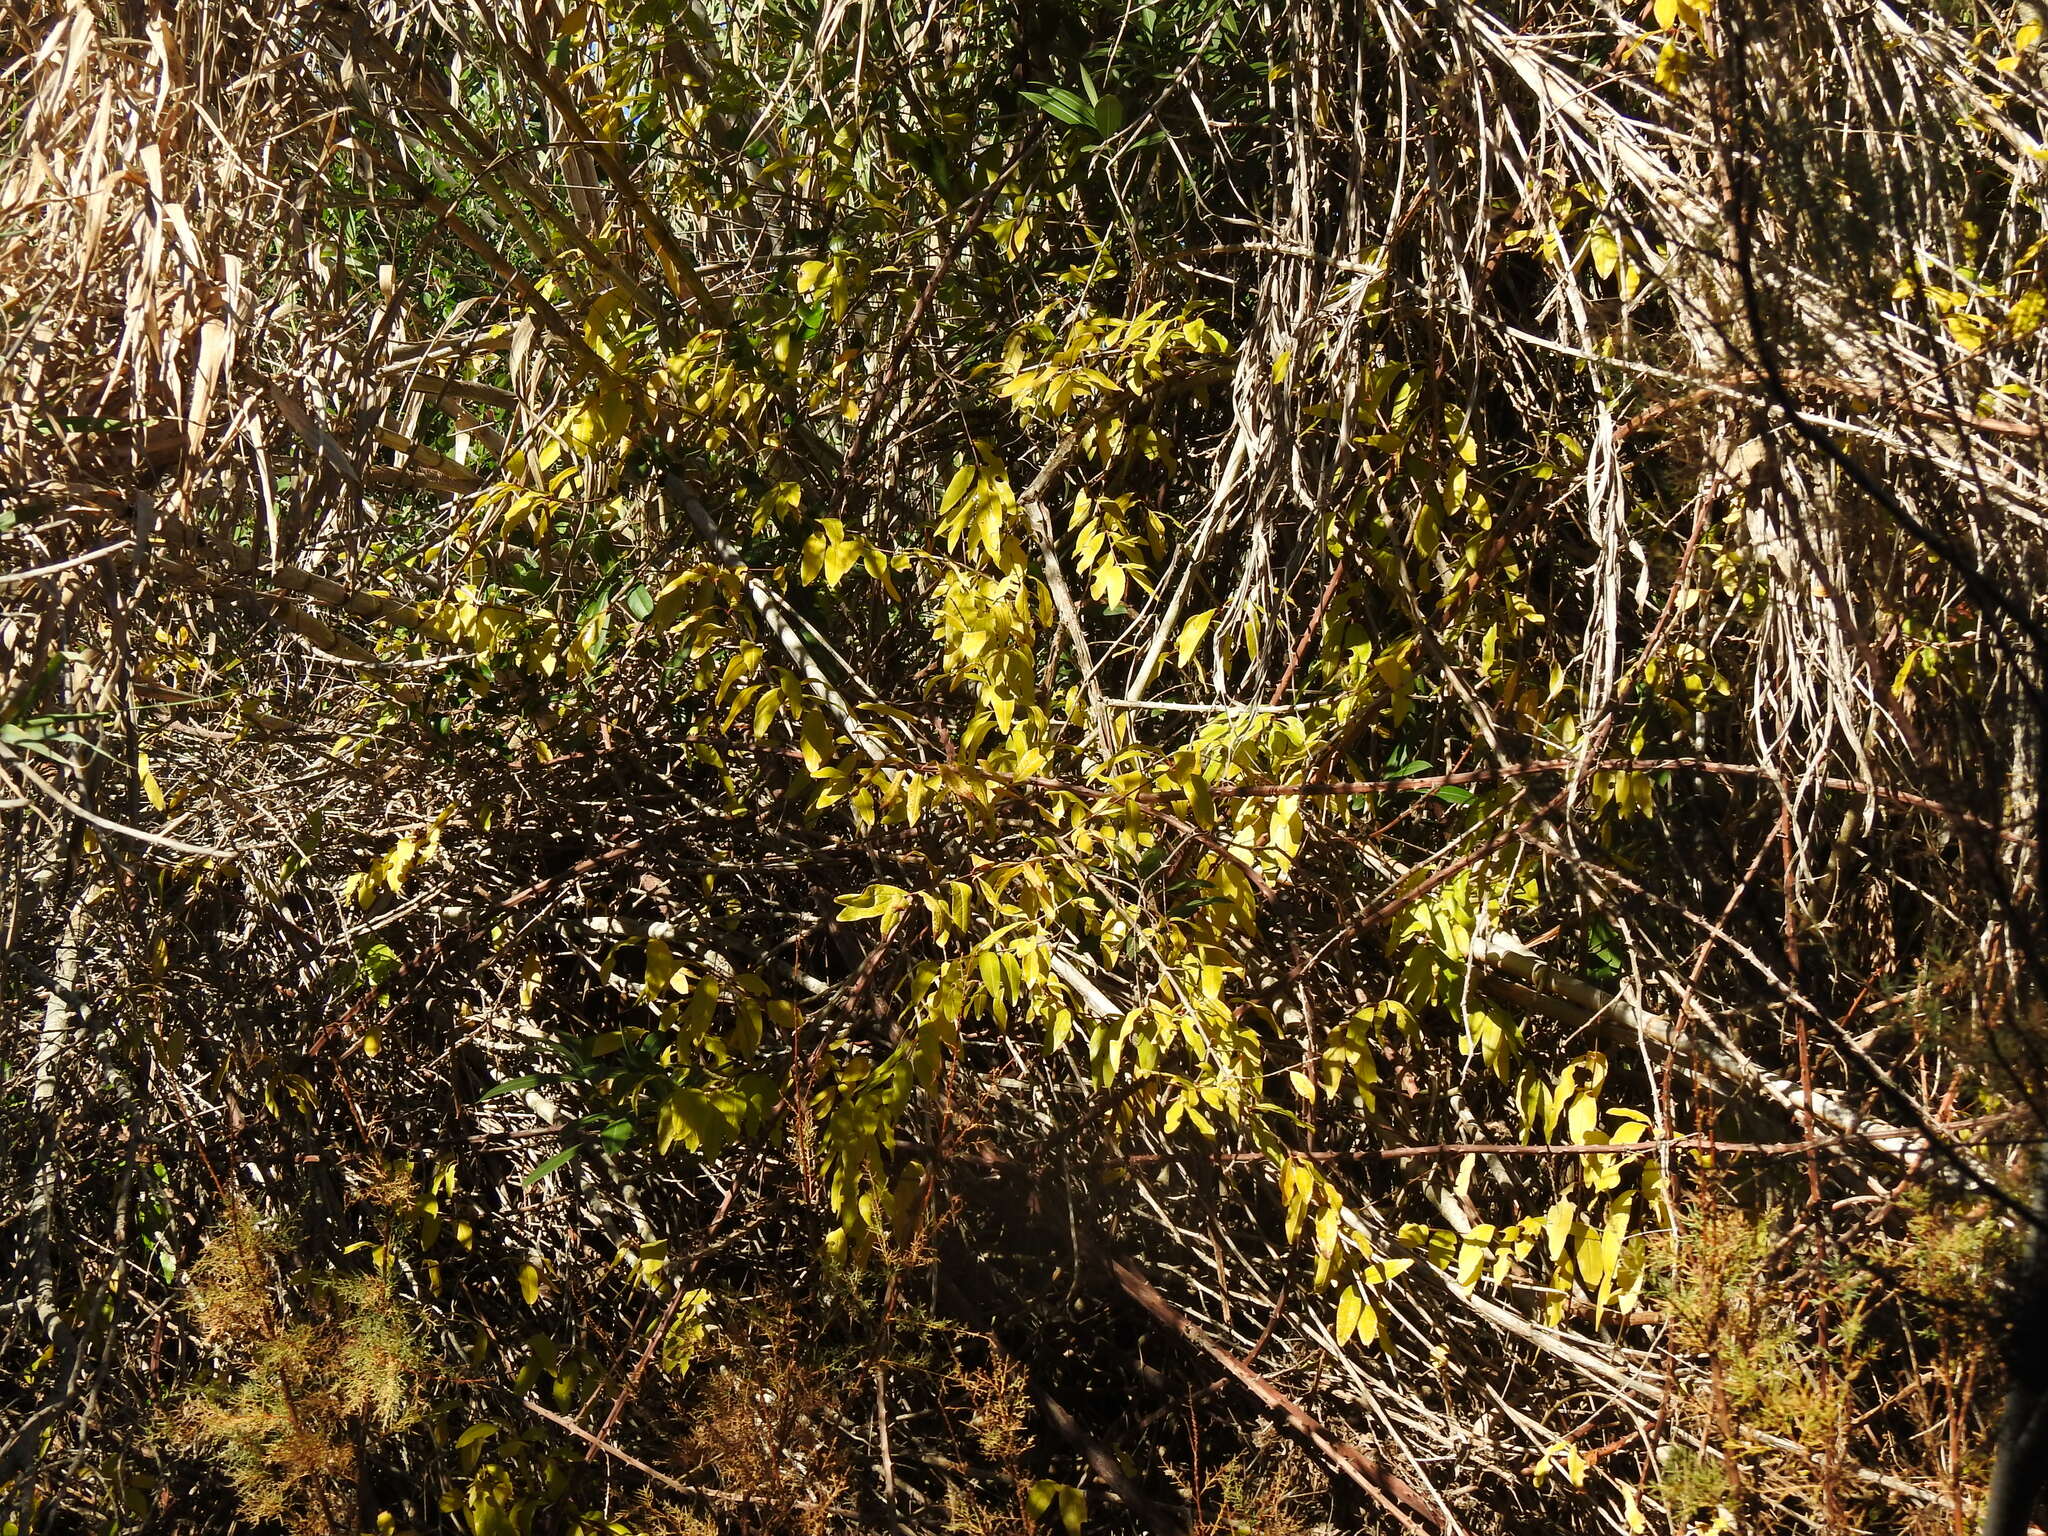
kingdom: Plantae
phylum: Tracheophyta
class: Magnoliopsida
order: Myrtales
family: Lythraceae
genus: Punica
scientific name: Punica granatum
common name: Pomegranate
